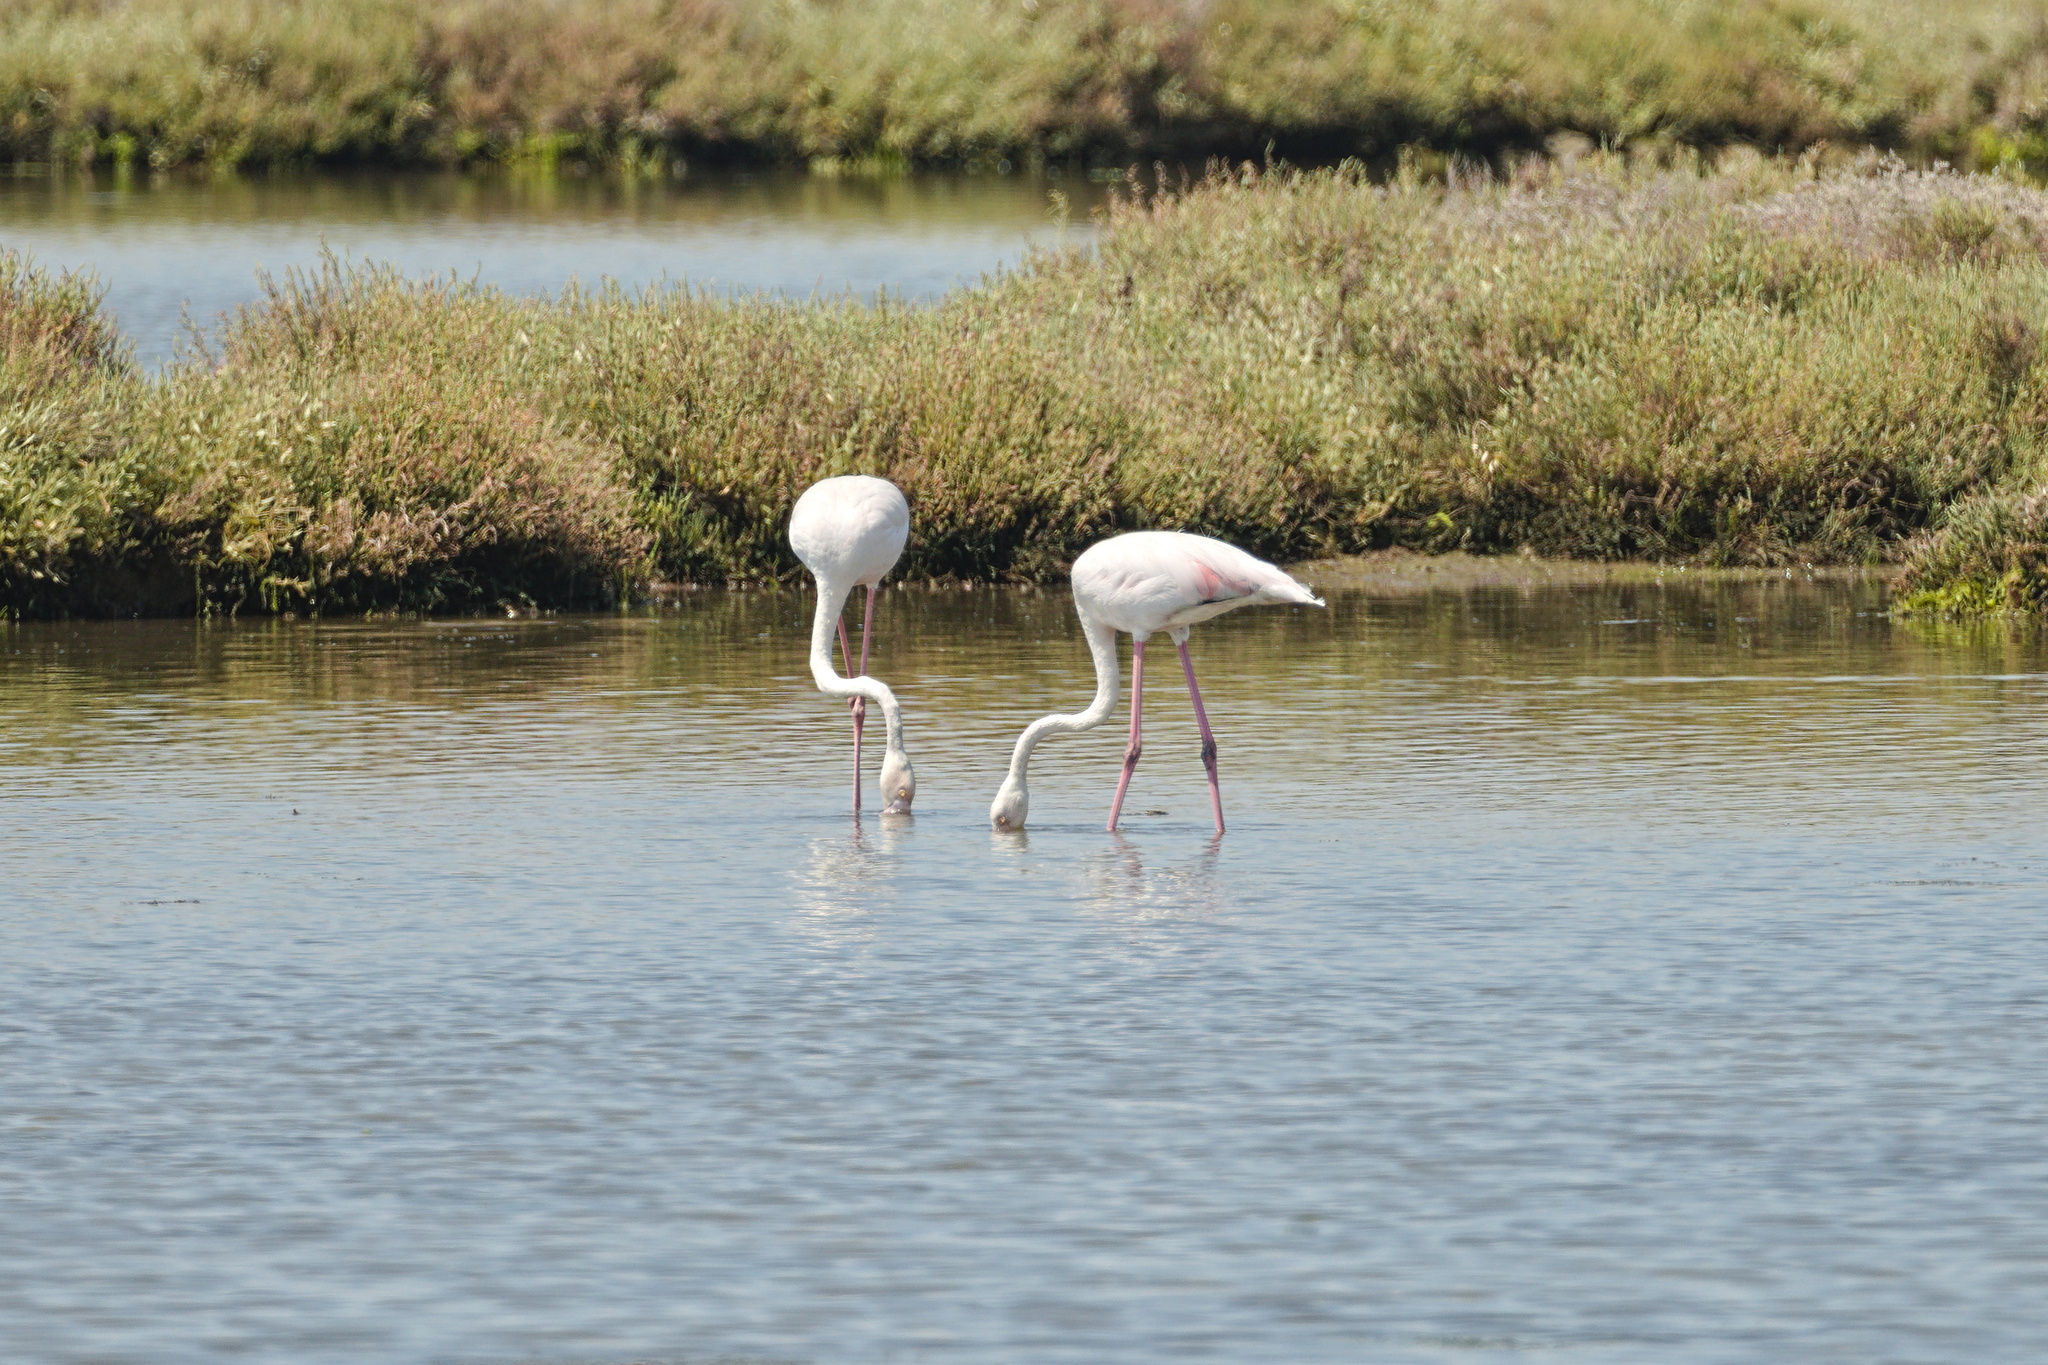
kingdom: Animalia
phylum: Chordata
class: Aves
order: Phoenicopteriformes
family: Phoenicopteridae
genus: Phoenicopterus
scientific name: Phoenicopterus roseus
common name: Greater flamingo
